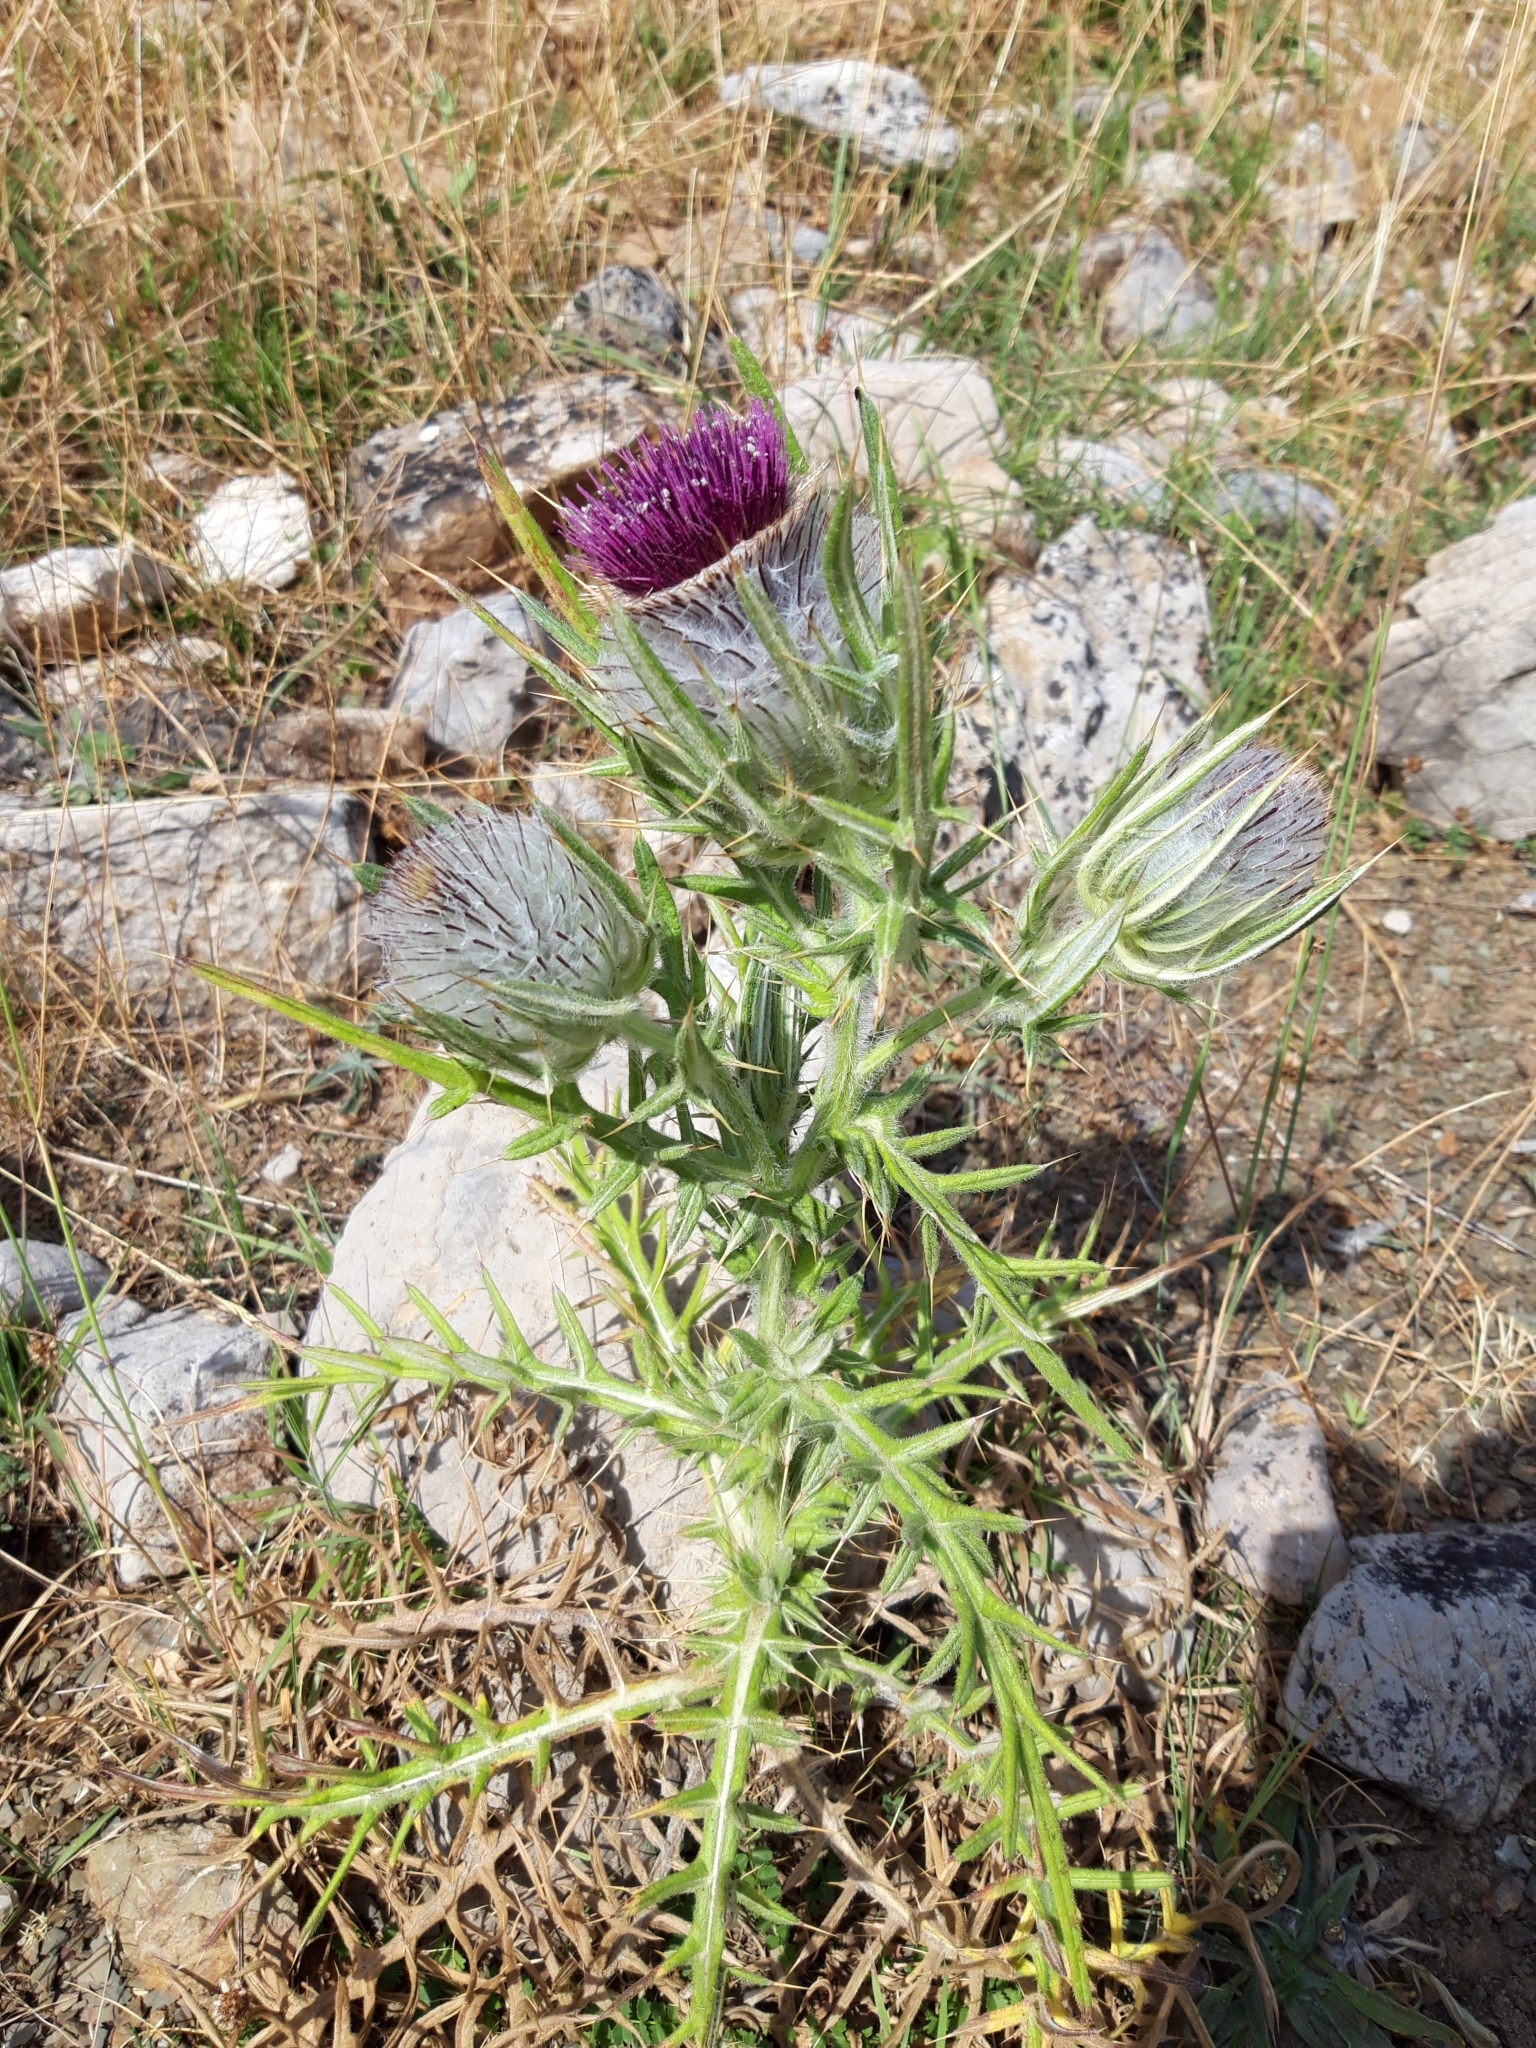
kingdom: Plantae
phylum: Tracheophyta
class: Magnoliopsida
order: Asterales
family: Asteraceae
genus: Lophiolepis
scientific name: Lophiolepis eriophora
